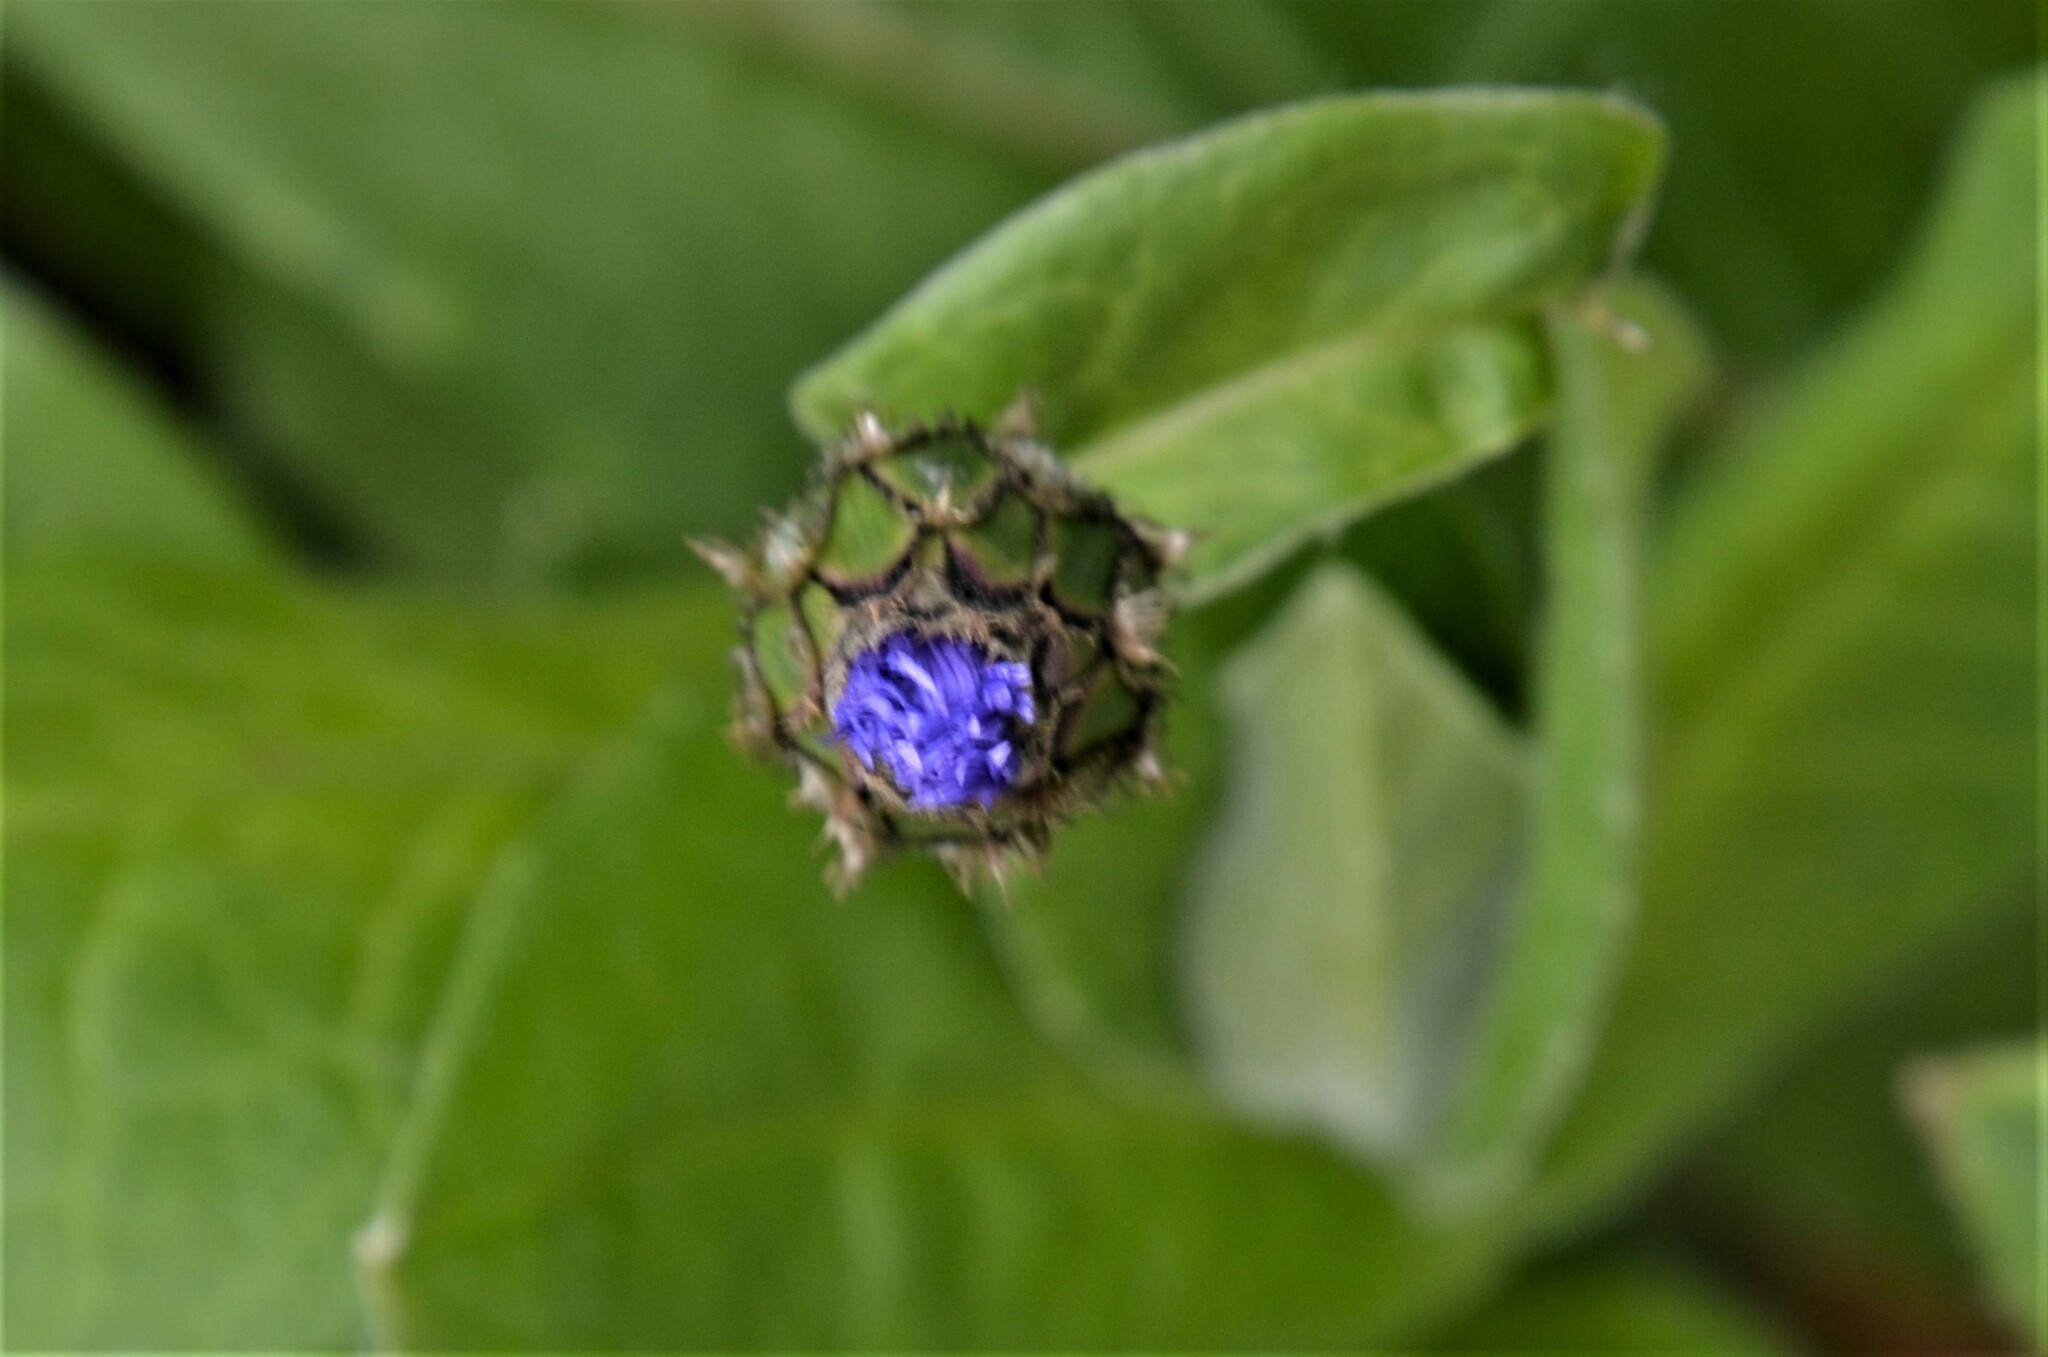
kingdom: Plantae
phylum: Tracheophyta
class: Magnoliopsida
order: Asterales
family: Asteraceae
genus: Centaurea
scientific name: Centaurea montana
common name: Perennial cornflower
